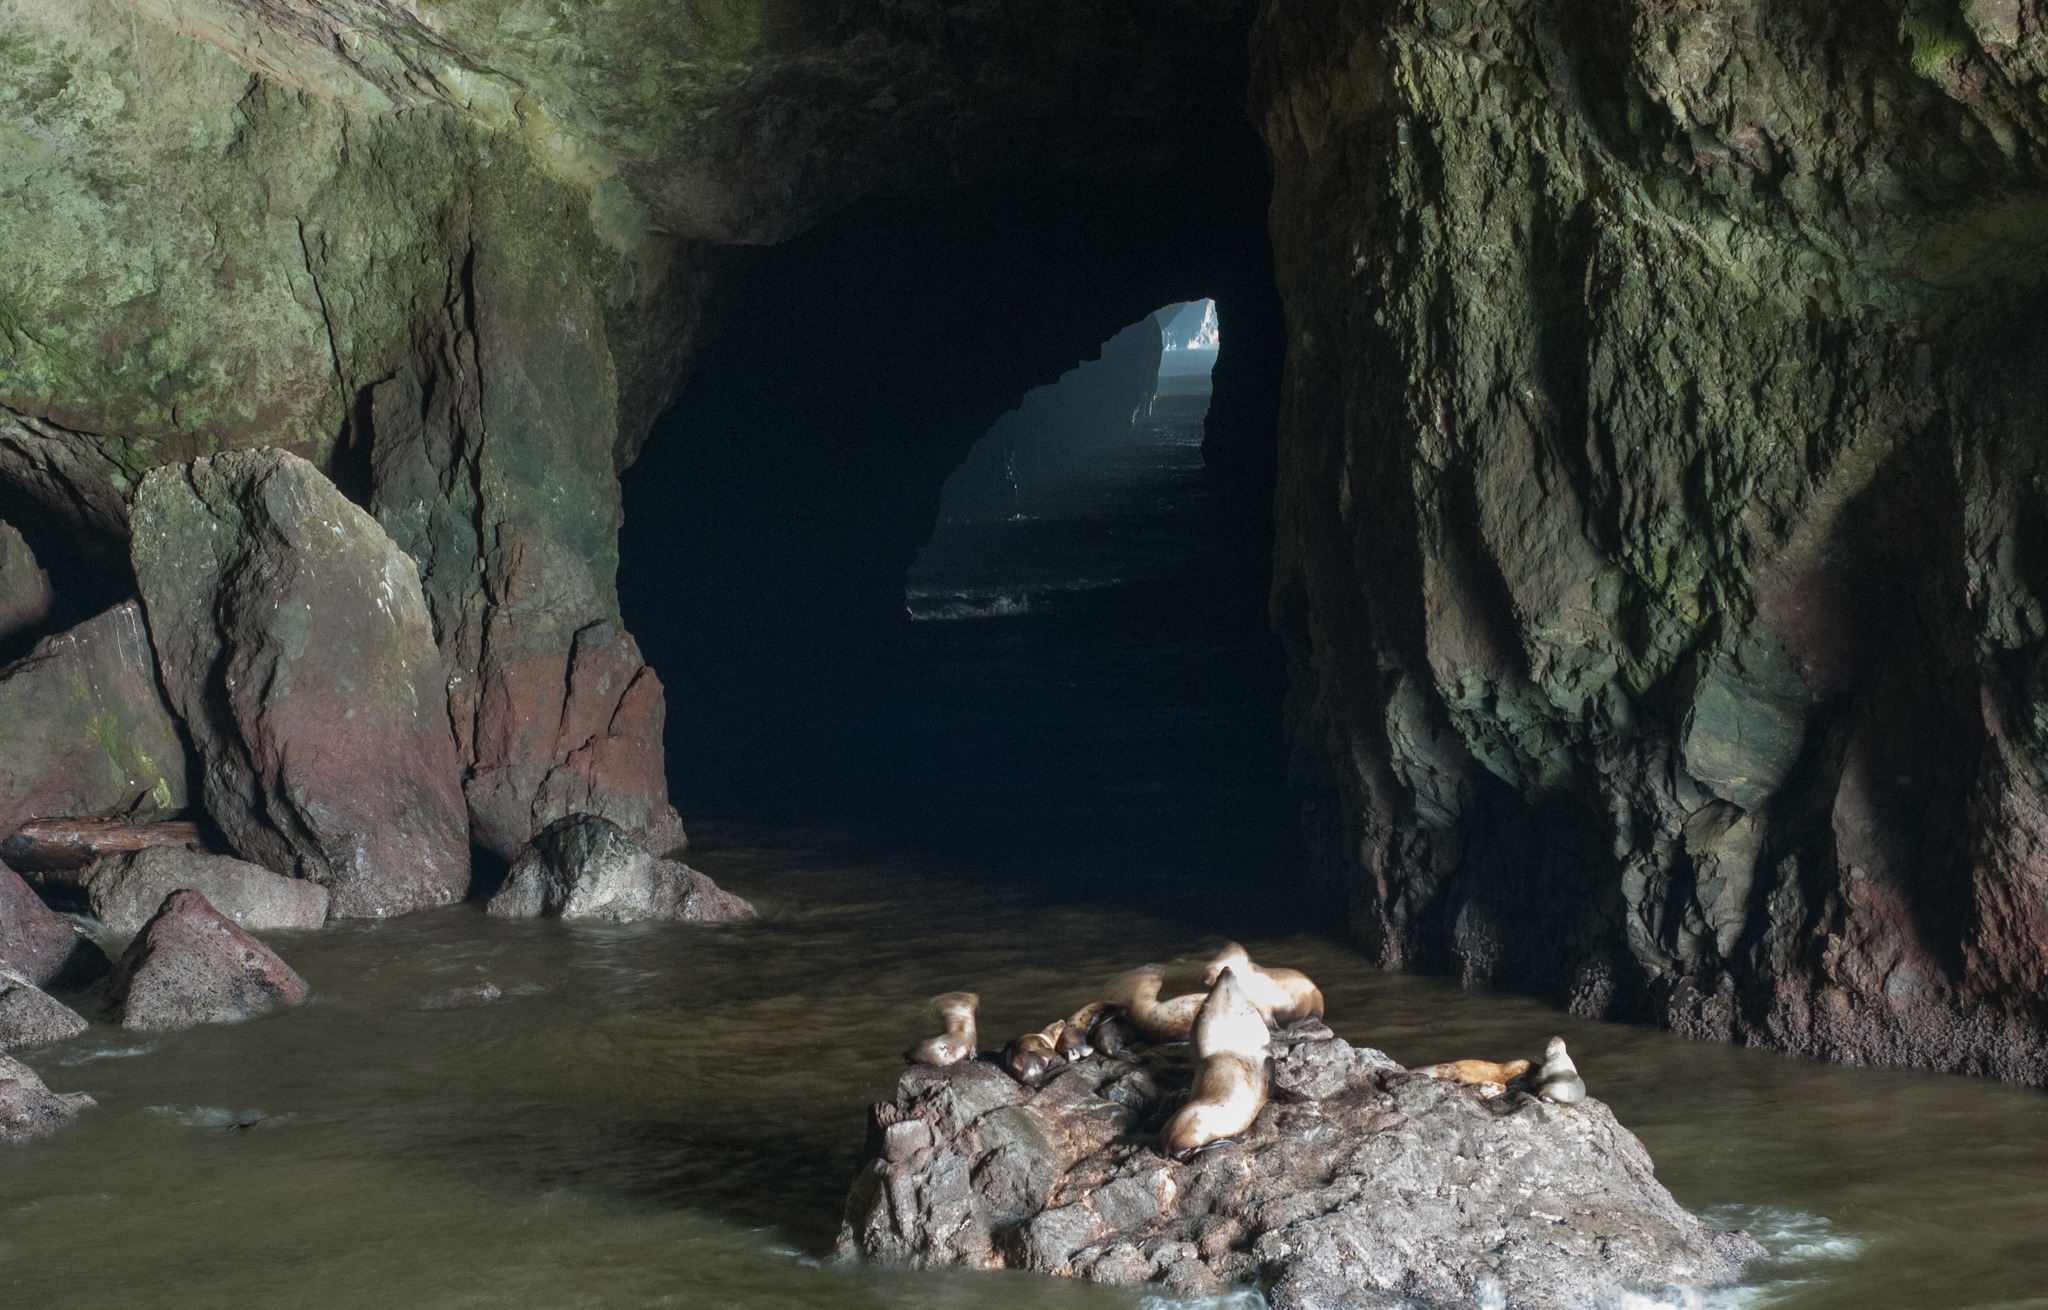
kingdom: Animalia
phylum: Chordata
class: Mammalia
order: Carnivora
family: Otariidae
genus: Eumetopias
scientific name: Eumetopias jubatus
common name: Steller sea lion
